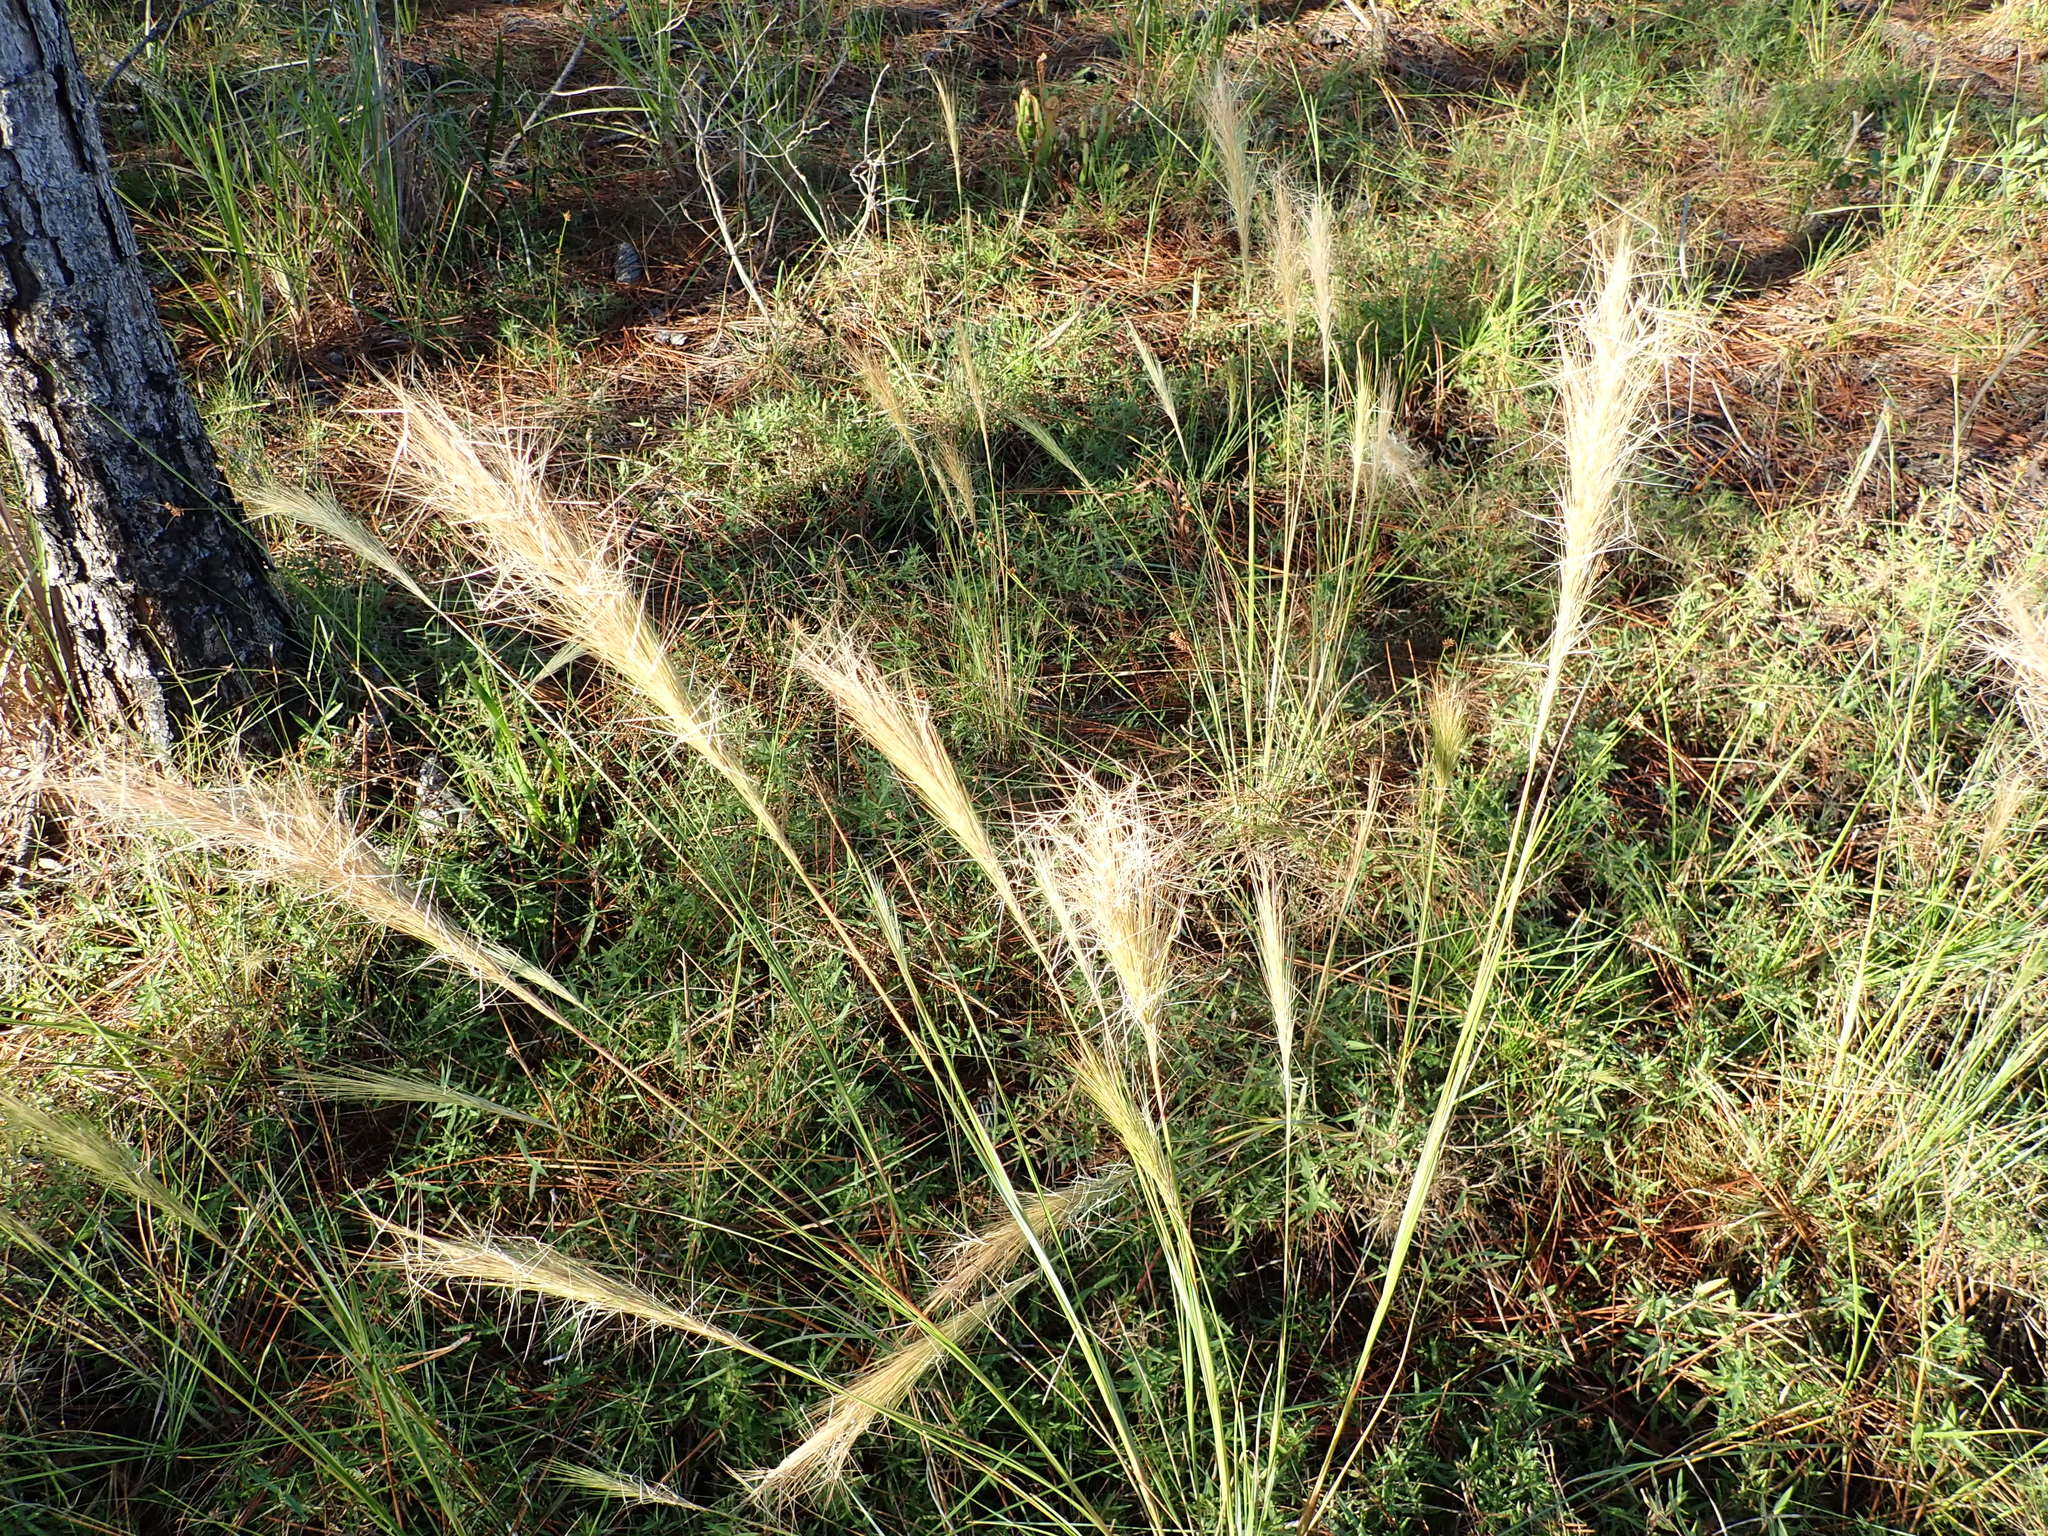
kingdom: Plantae
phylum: Tracheophyta
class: Liliopsida
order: Poales
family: Poaceae
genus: Aristida
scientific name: Aristida spiciformis
